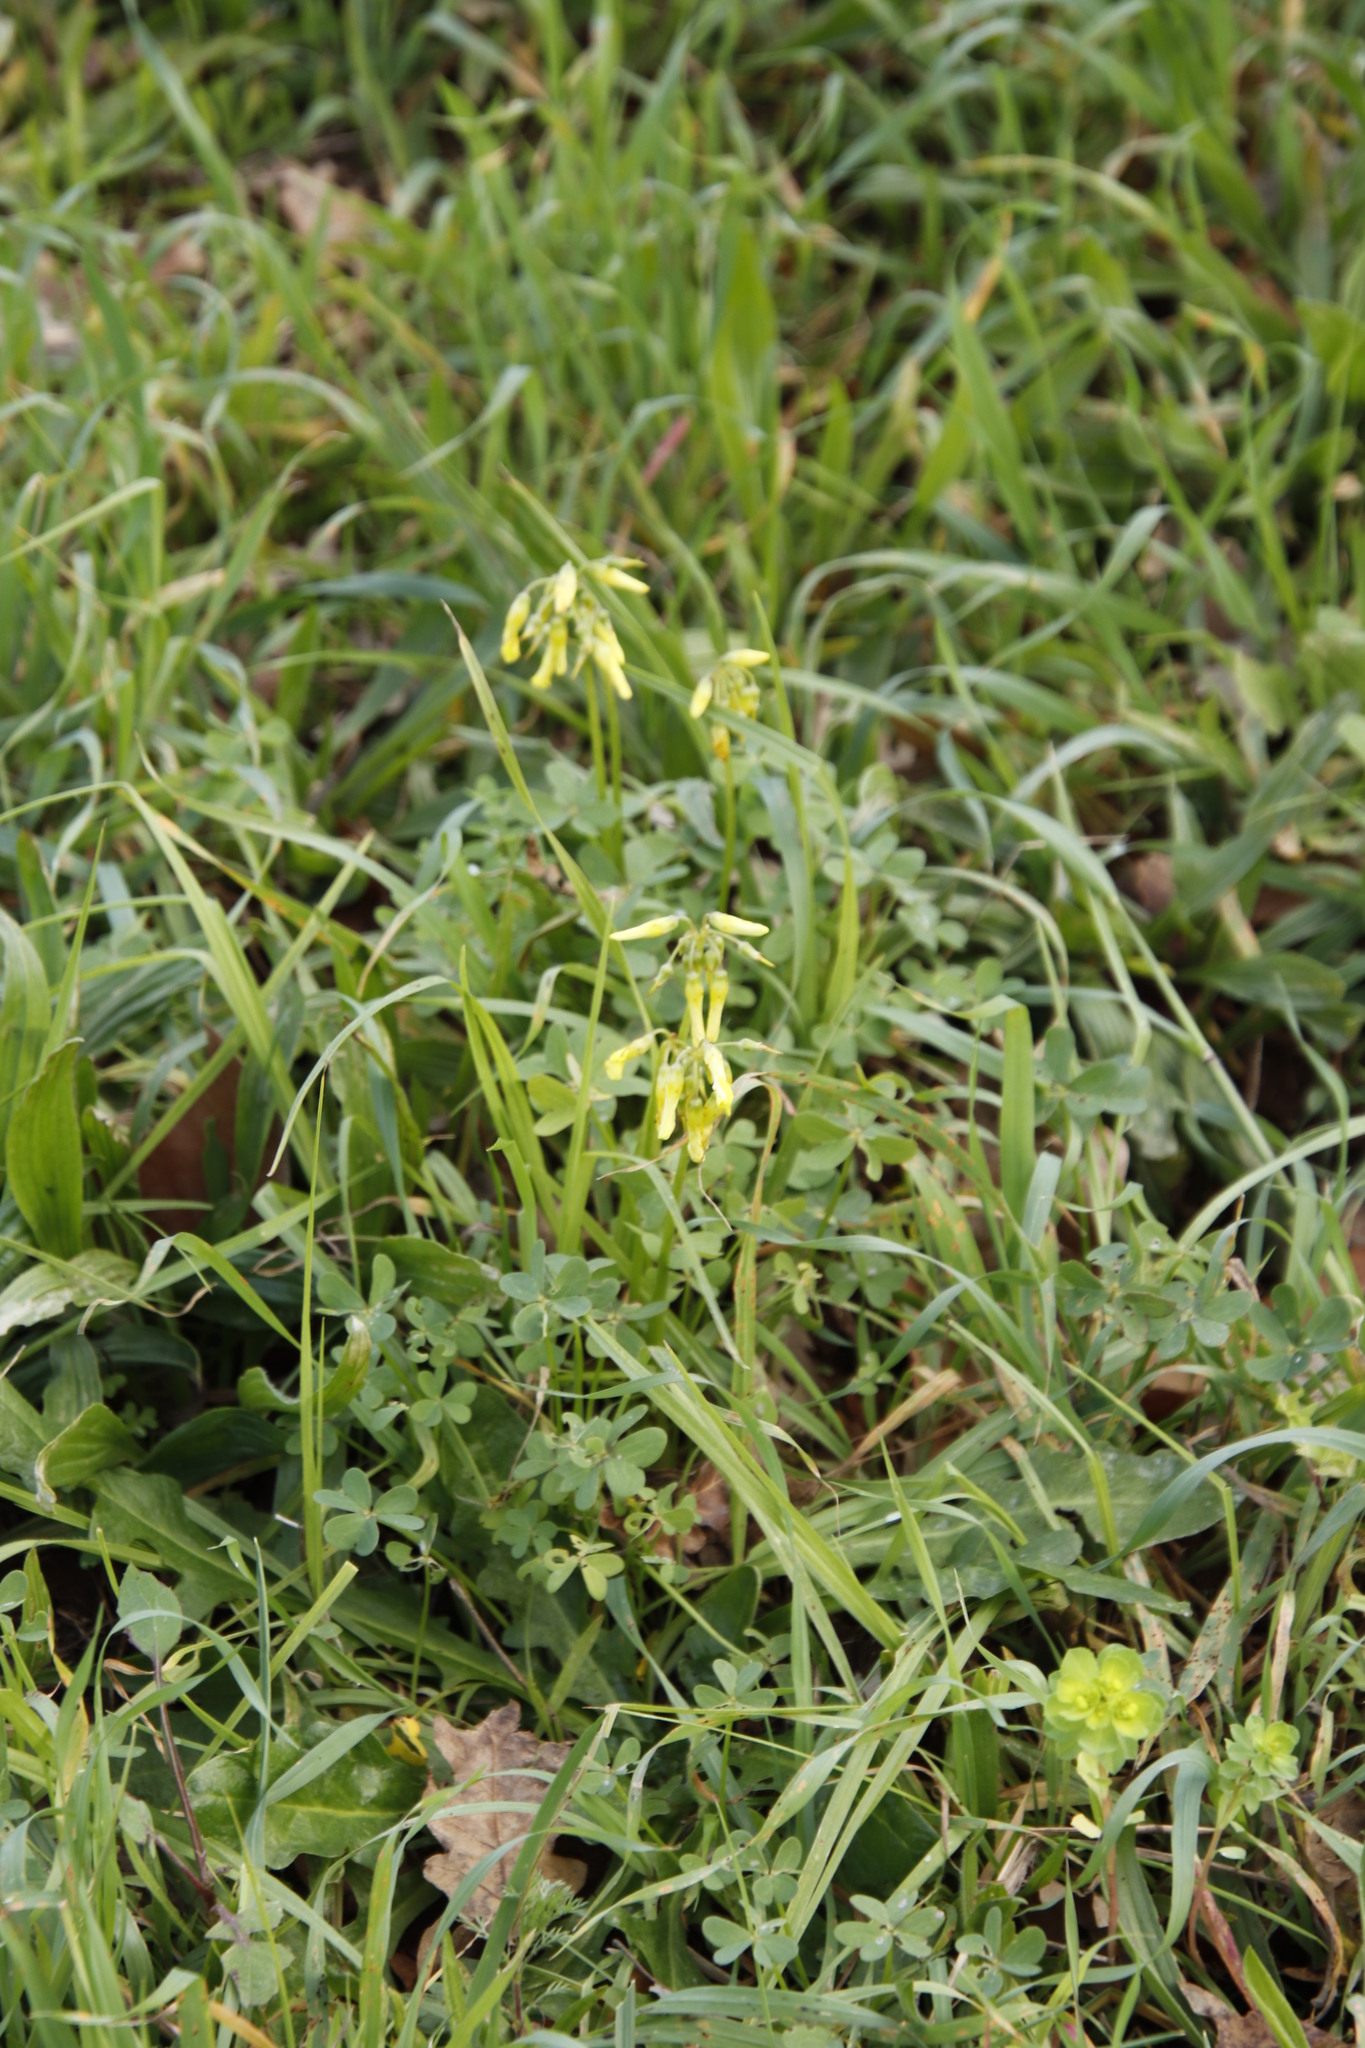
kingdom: Plantae
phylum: Tracheophyta
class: Magnoliopsida
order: Oxalidales
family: Oxalidaceae
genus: Oxalis
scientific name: Oxalis pes-caprae
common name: Bermuda-buttercup
